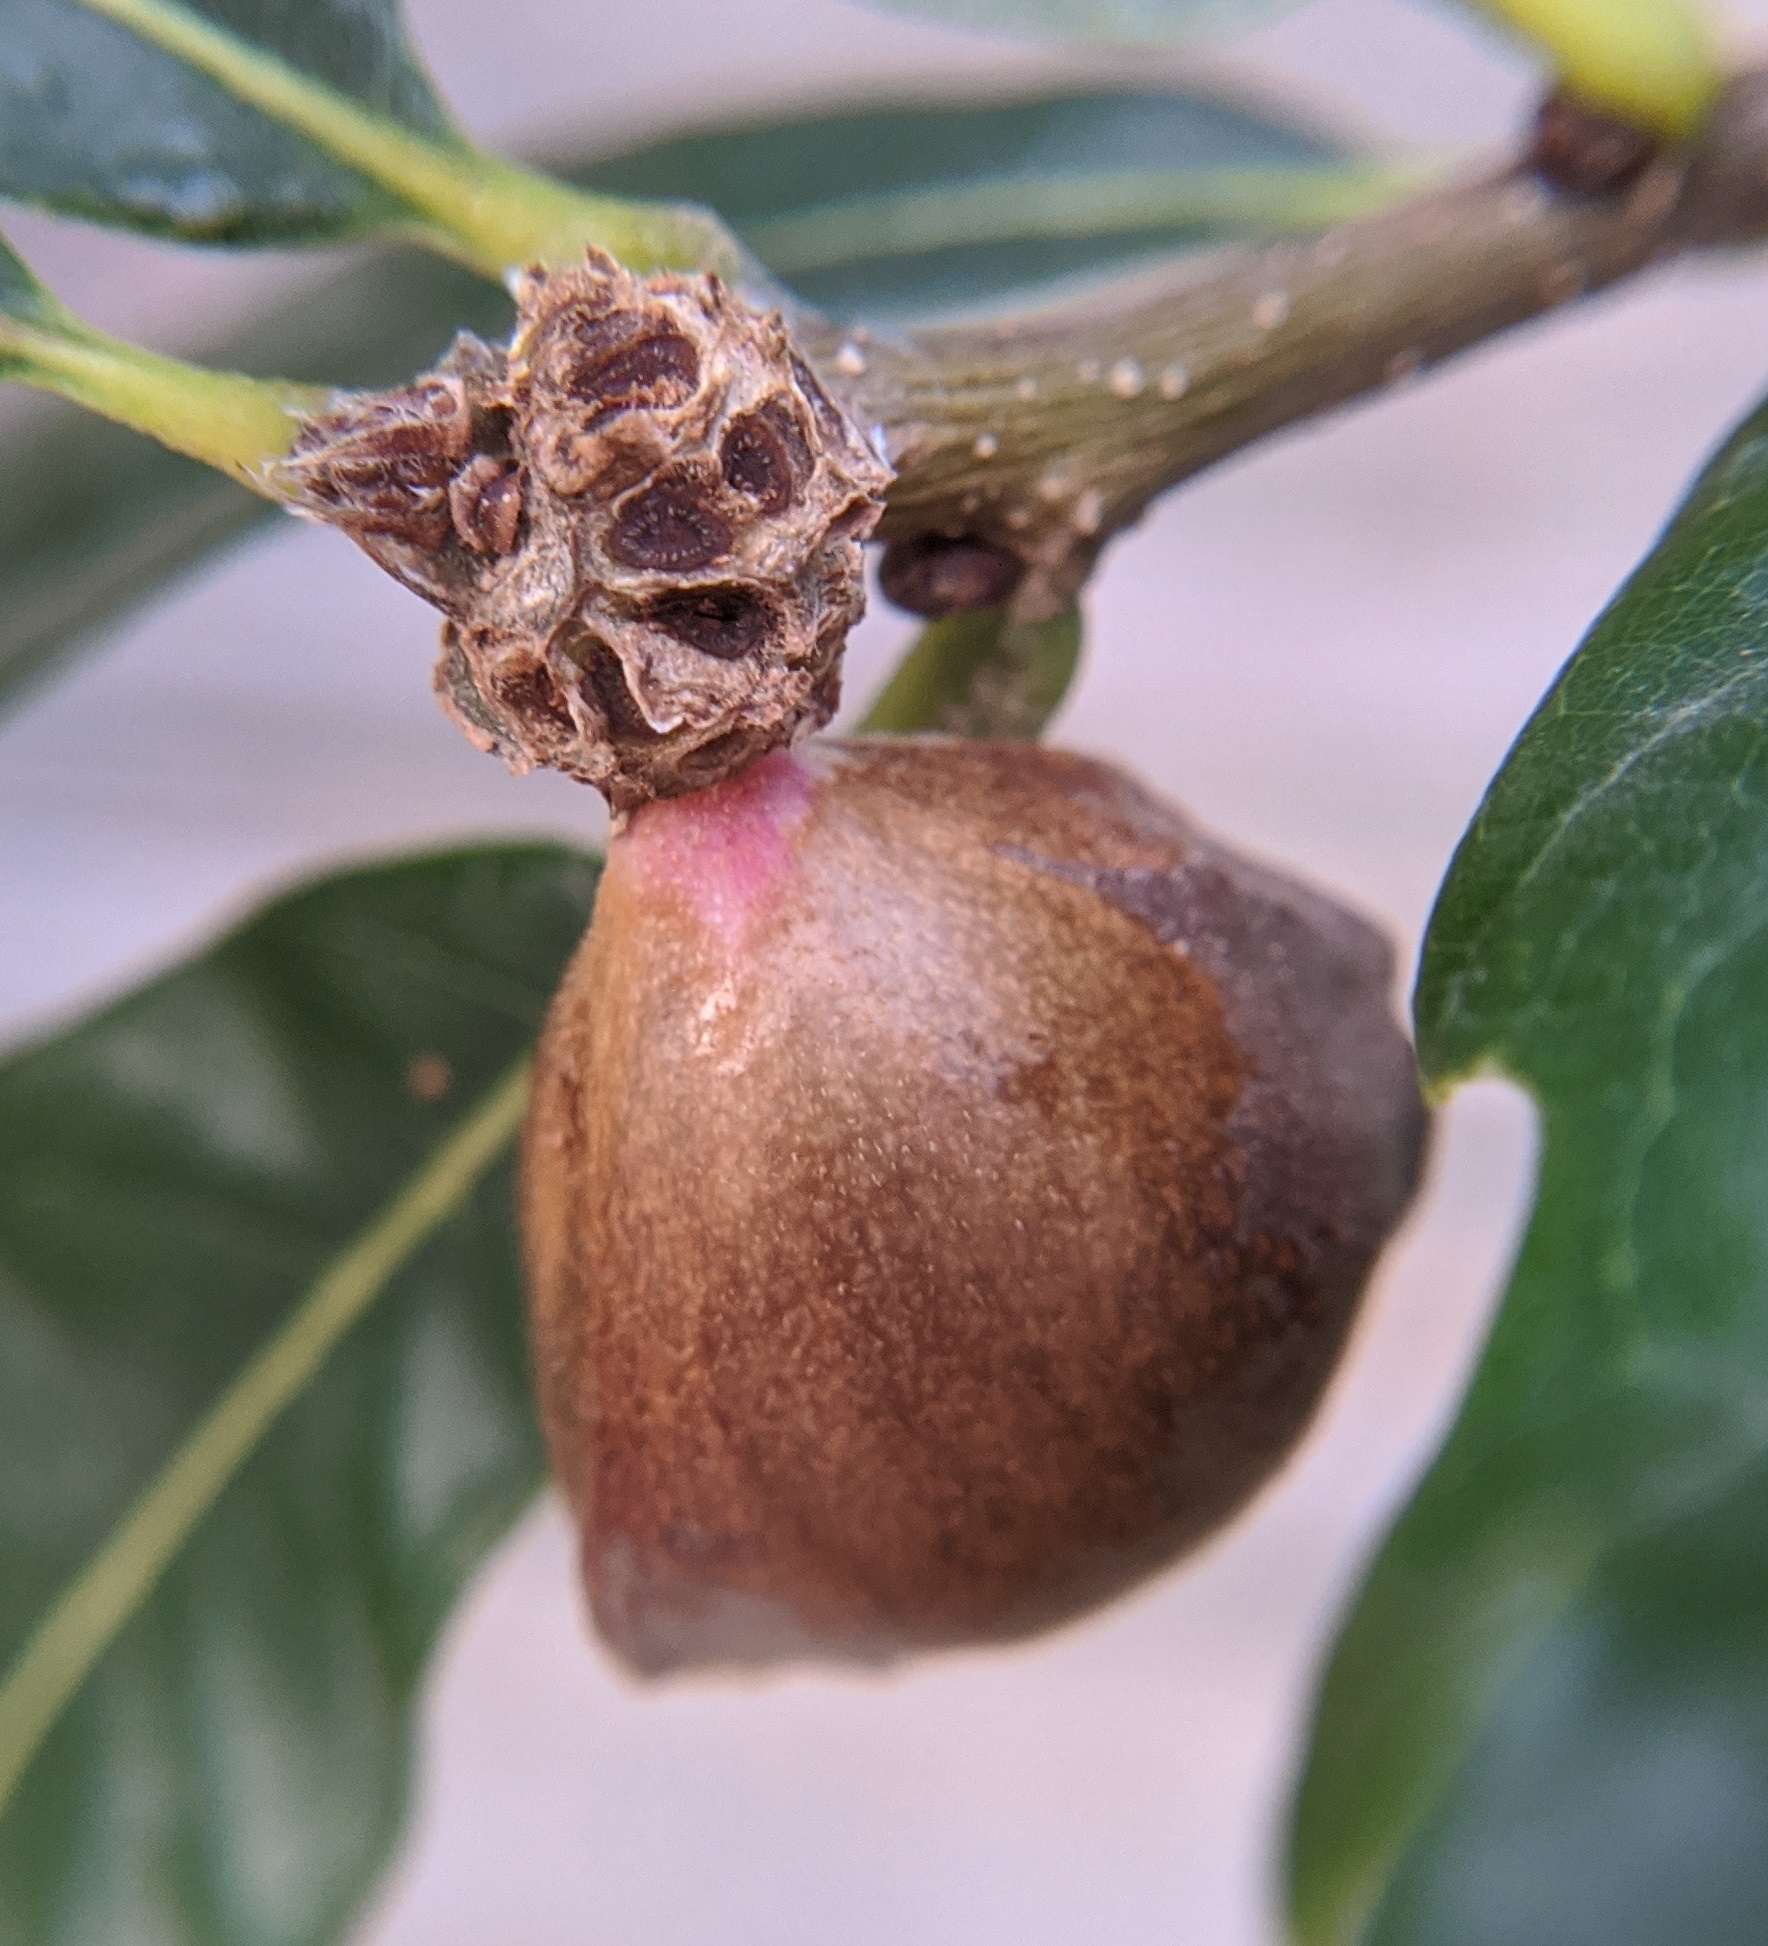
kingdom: Animalia
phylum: Arthropoda
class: Insecta
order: Hymenoptera
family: Cynipidae
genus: Andricus
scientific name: Andricus
